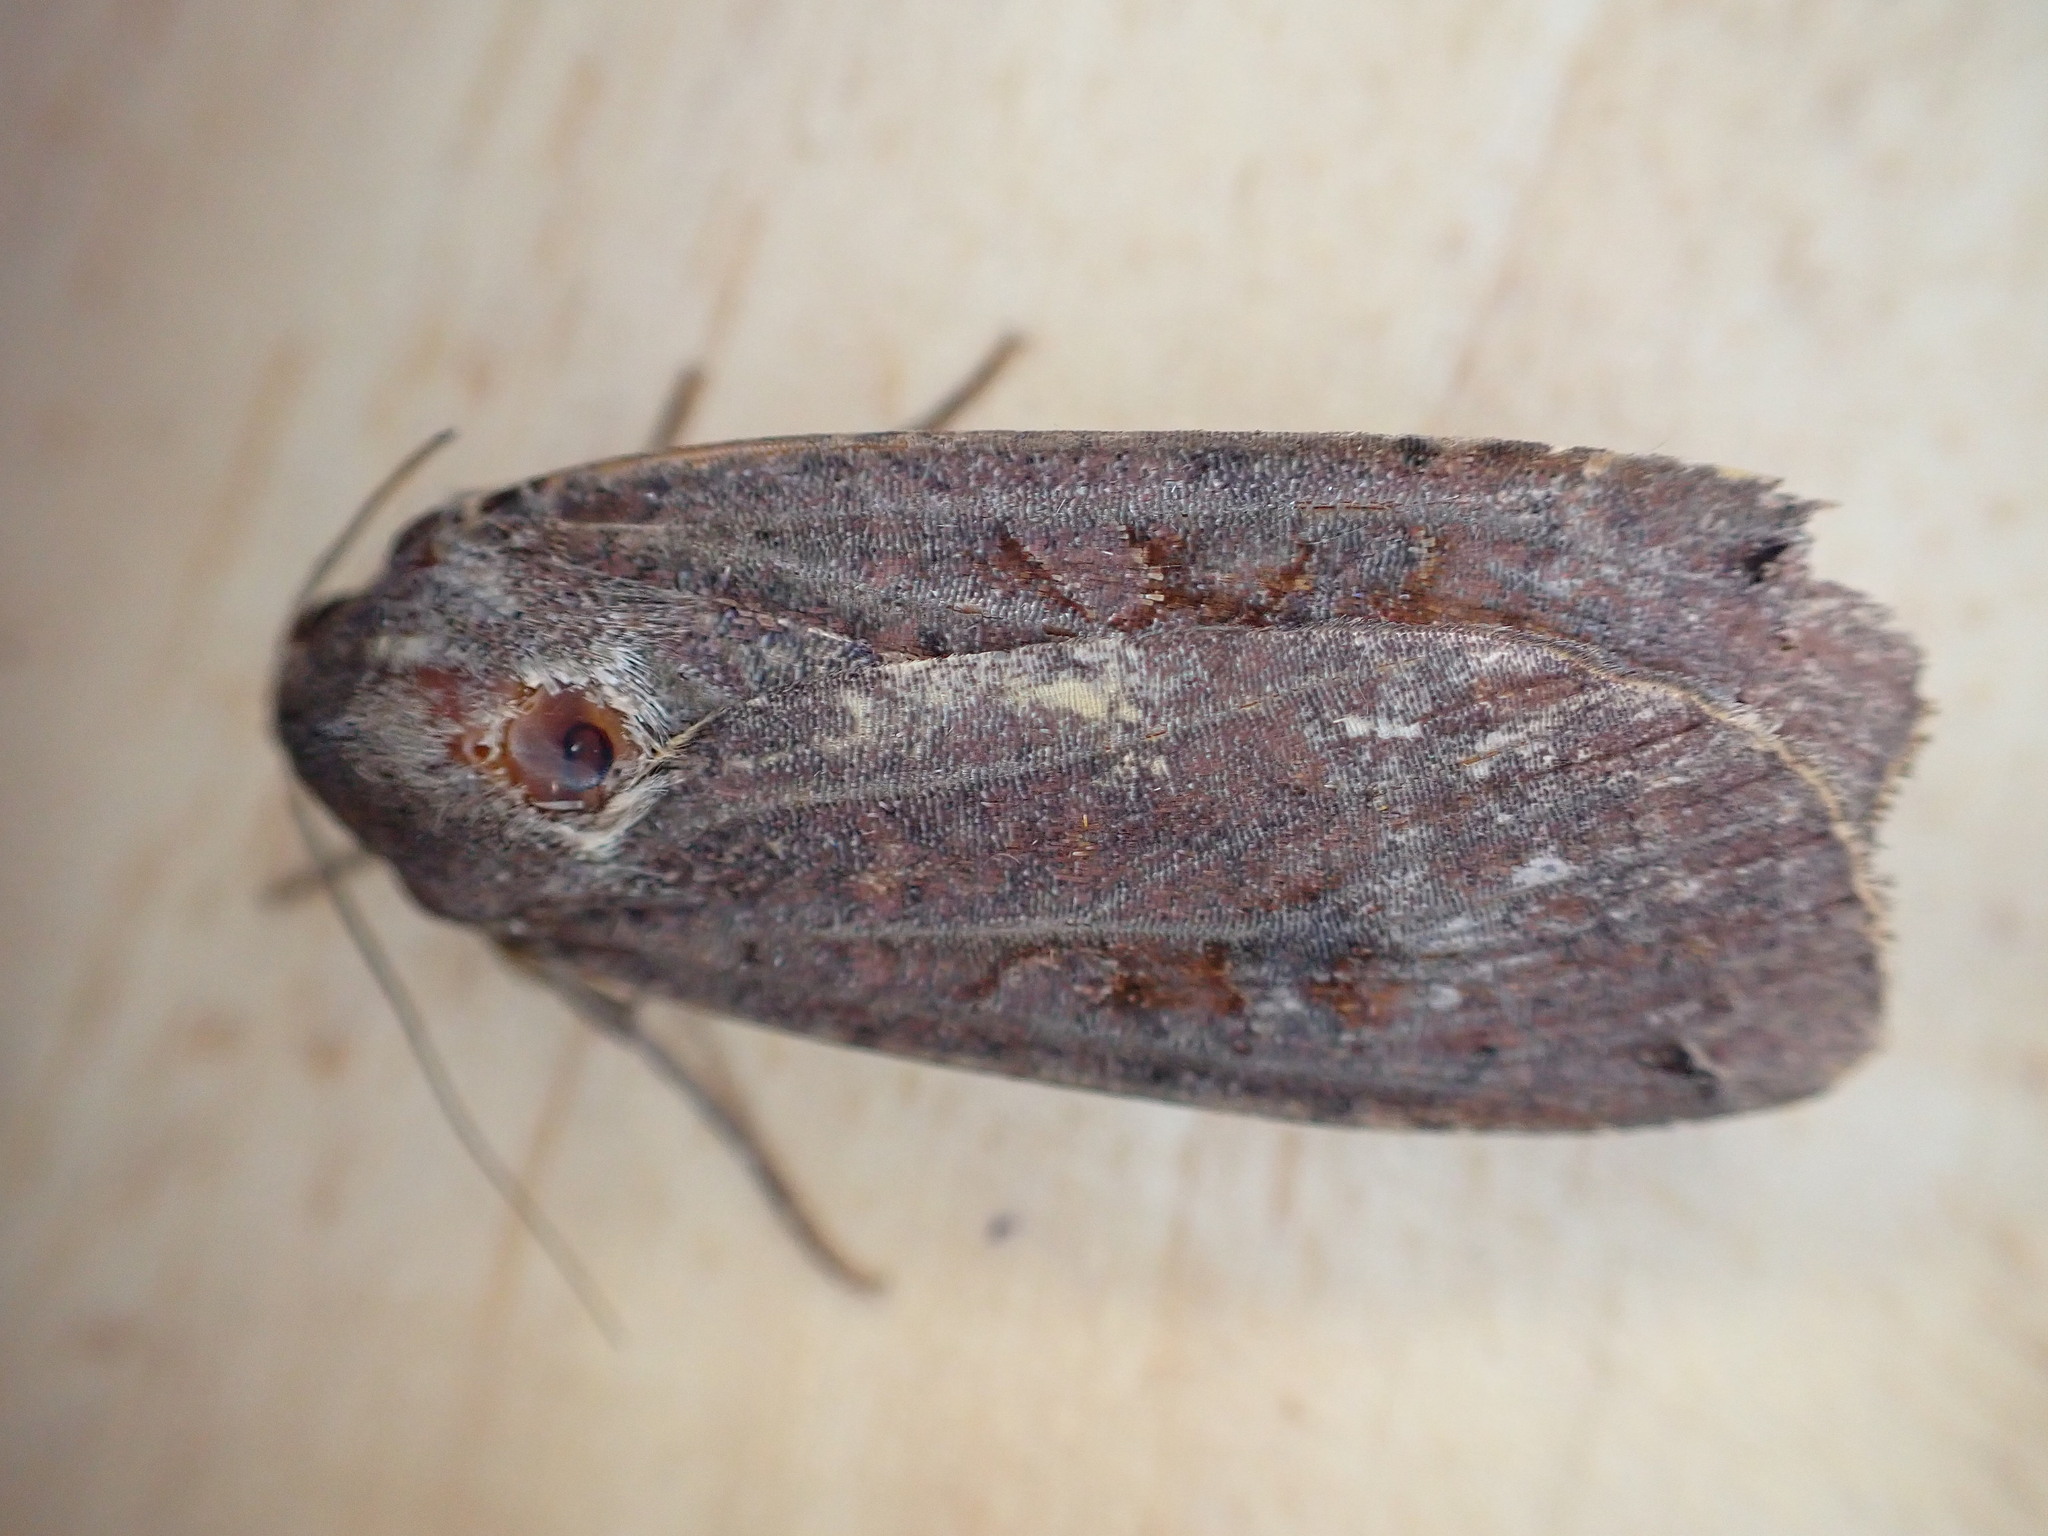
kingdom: Animalia
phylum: Arthropoda
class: Insecta
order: Lepidoptera
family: Noctuidae
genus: Noctua
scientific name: Noctua pronuba
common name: Large yellow underwing
